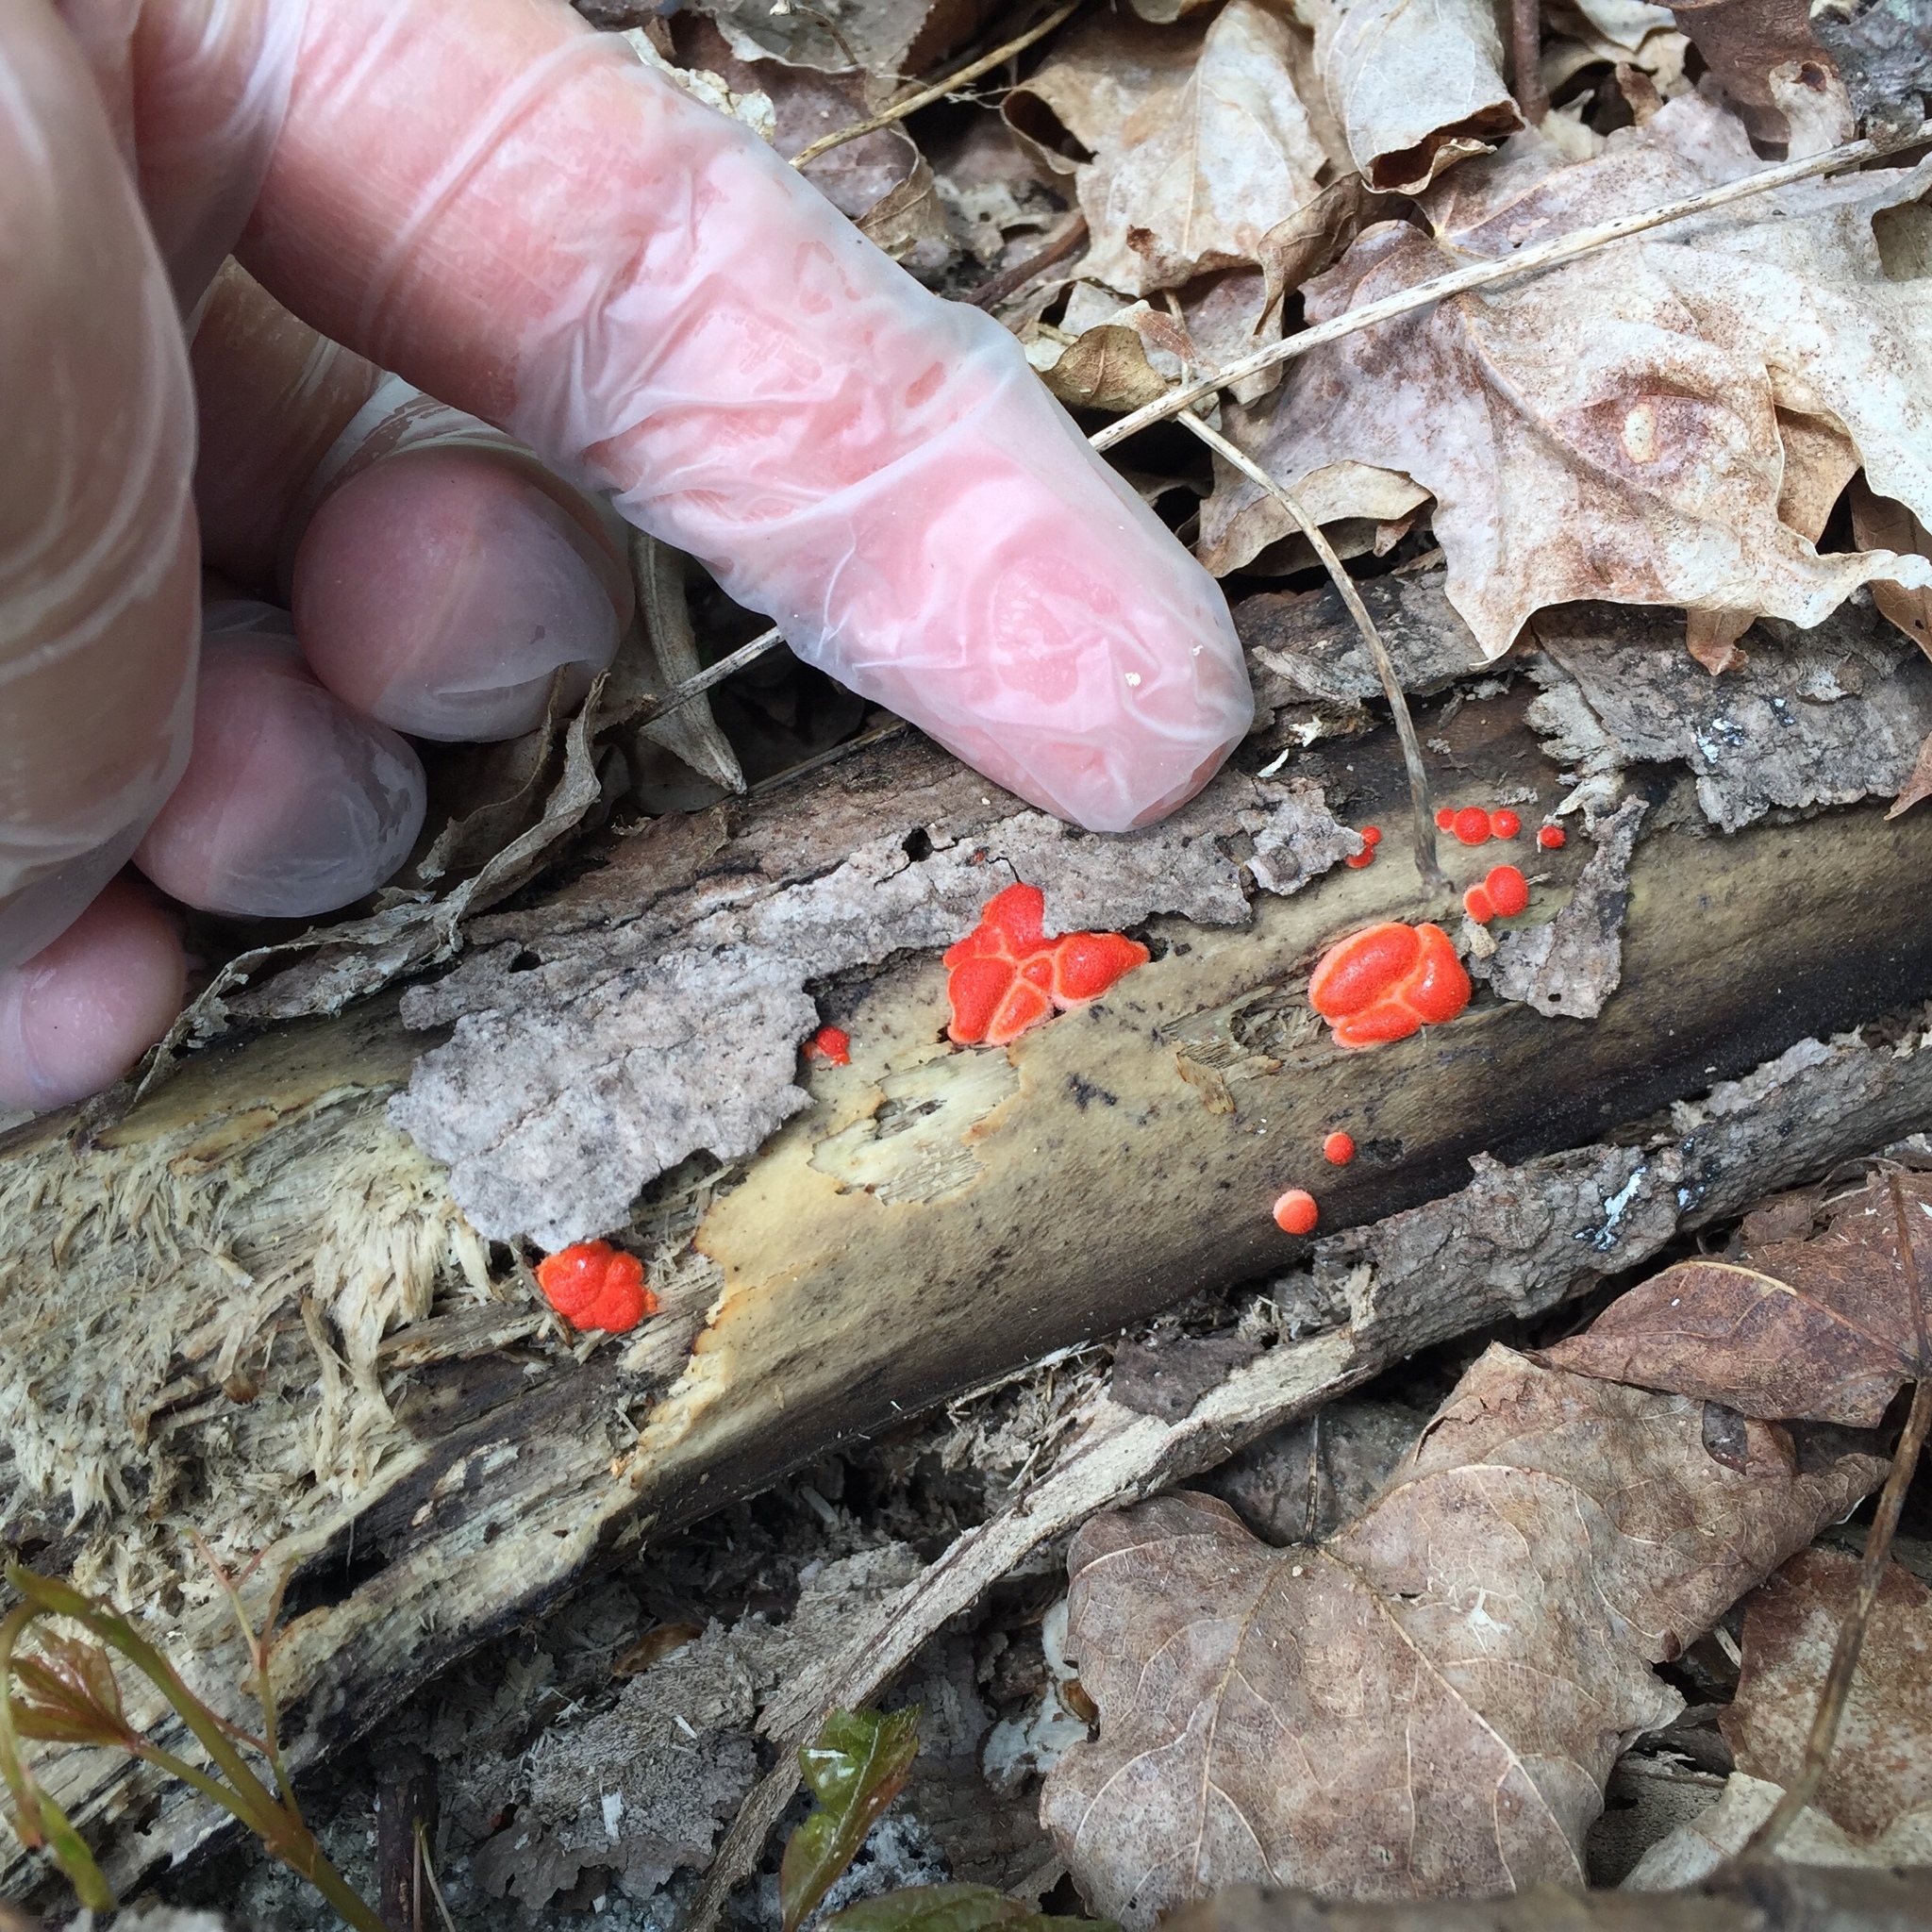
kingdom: Protozoa
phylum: Mycetozoa
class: Myxomycetes
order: Cribrariales
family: Tubiferaceae
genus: Lycogala
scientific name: Lycogala epidendrum
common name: Wolf's milk
